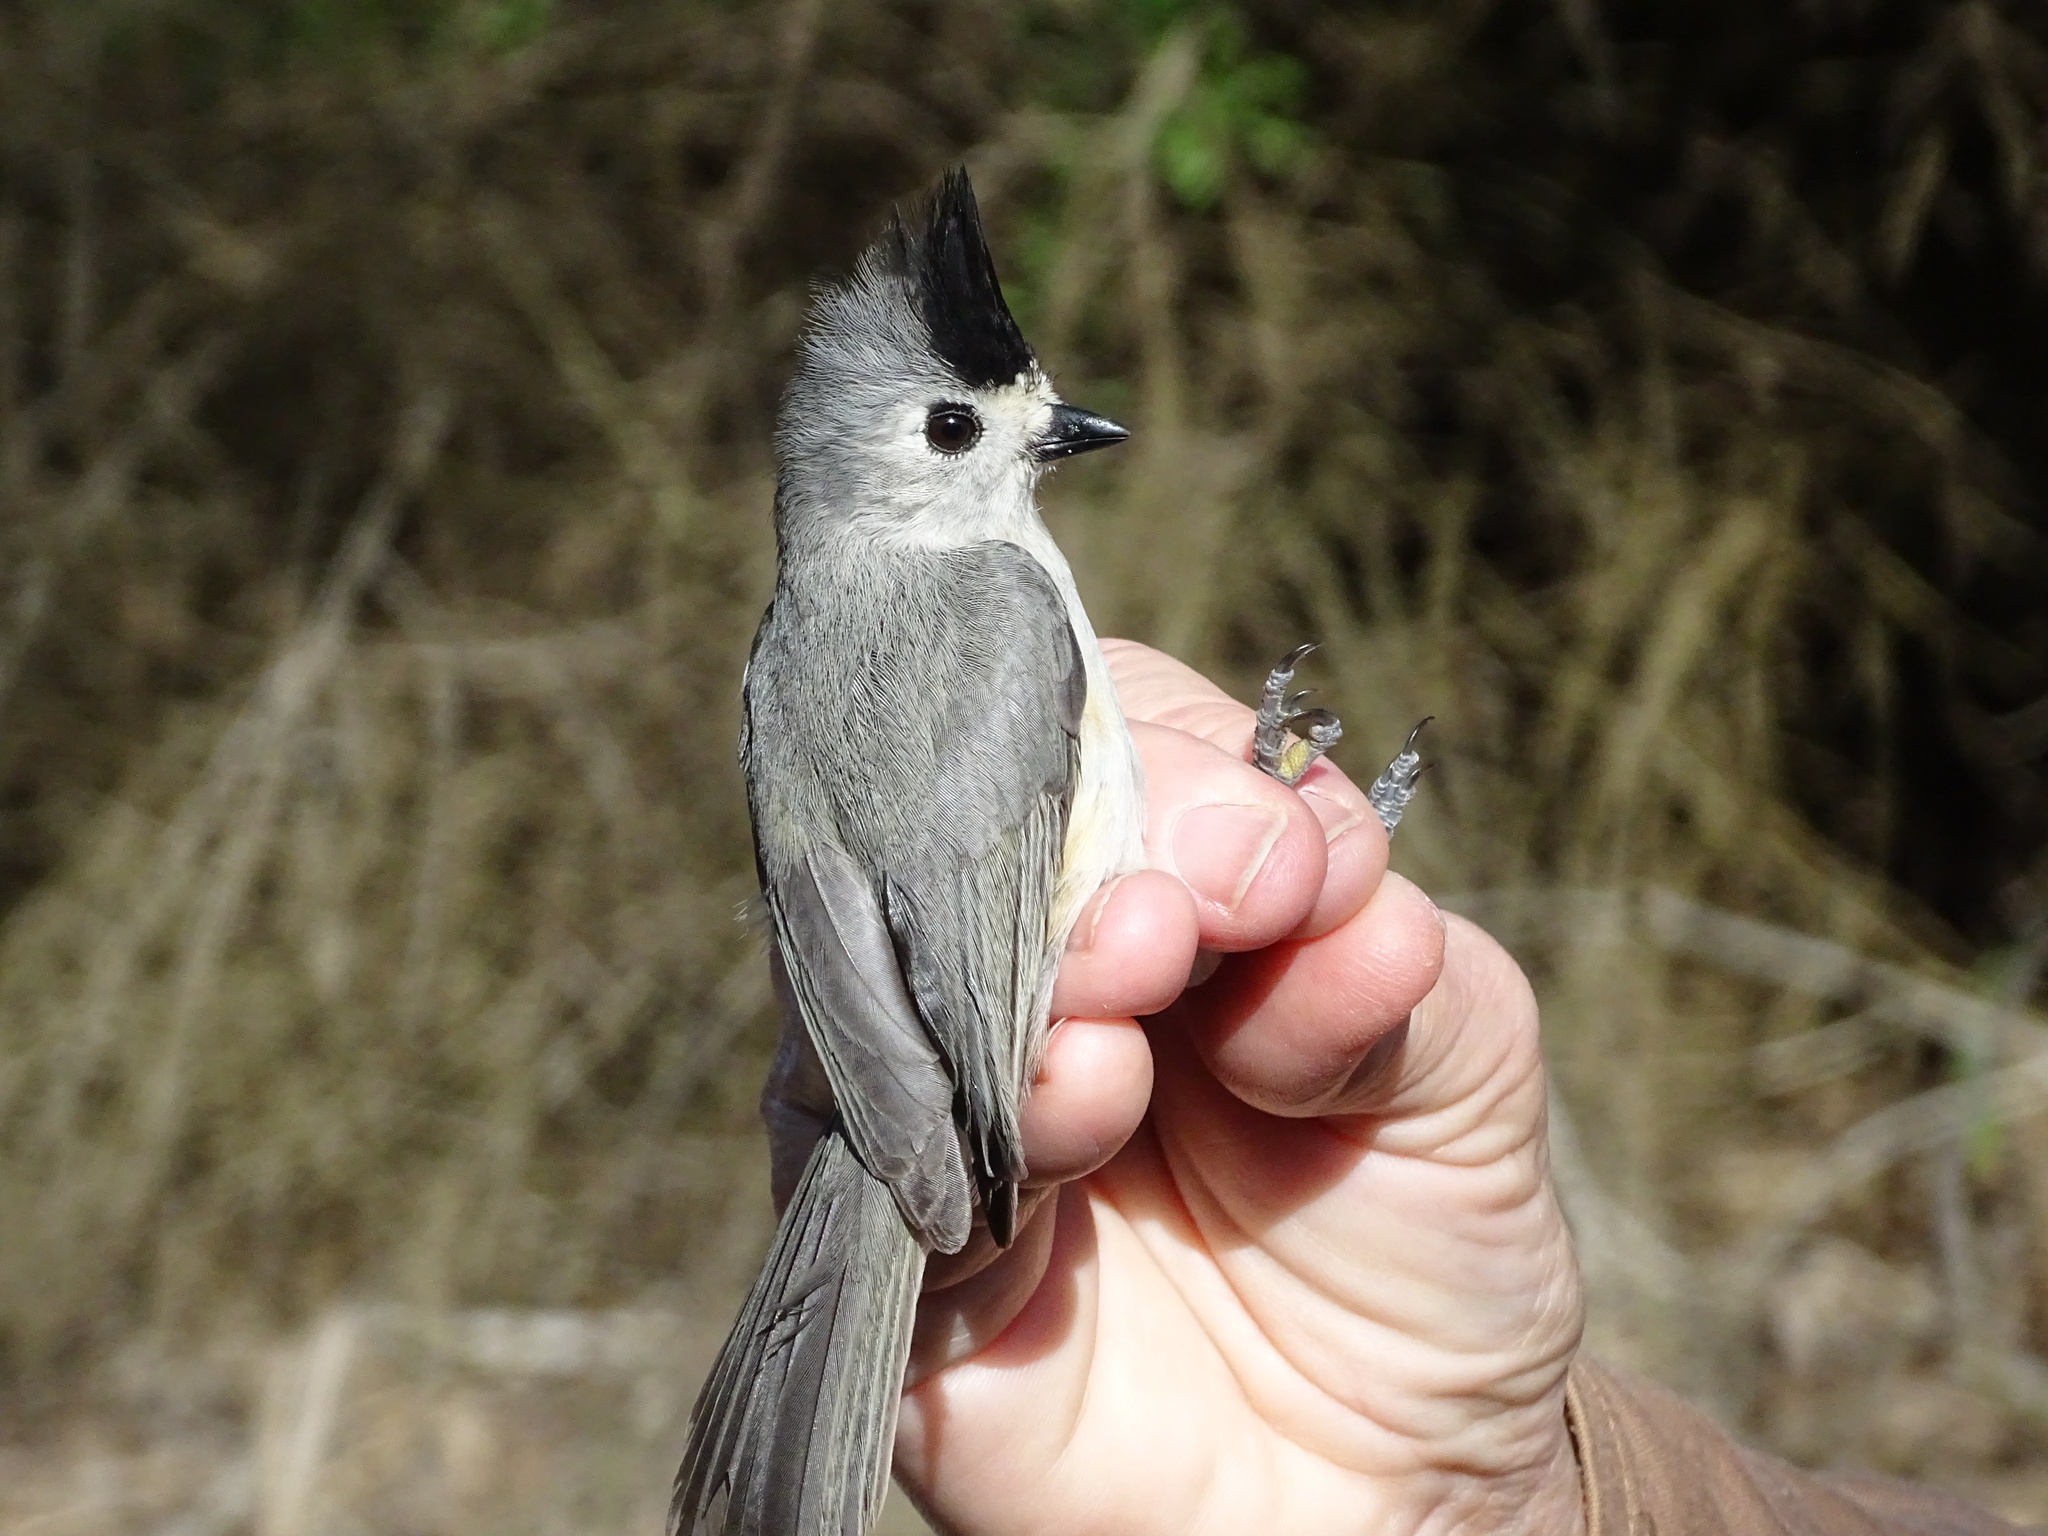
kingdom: Animalia
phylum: Chordata
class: Aves
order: Passeriformes
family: Paridae
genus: Baeolophus
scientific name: Baeolophus atricristatus
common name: Black-crested titmouse
